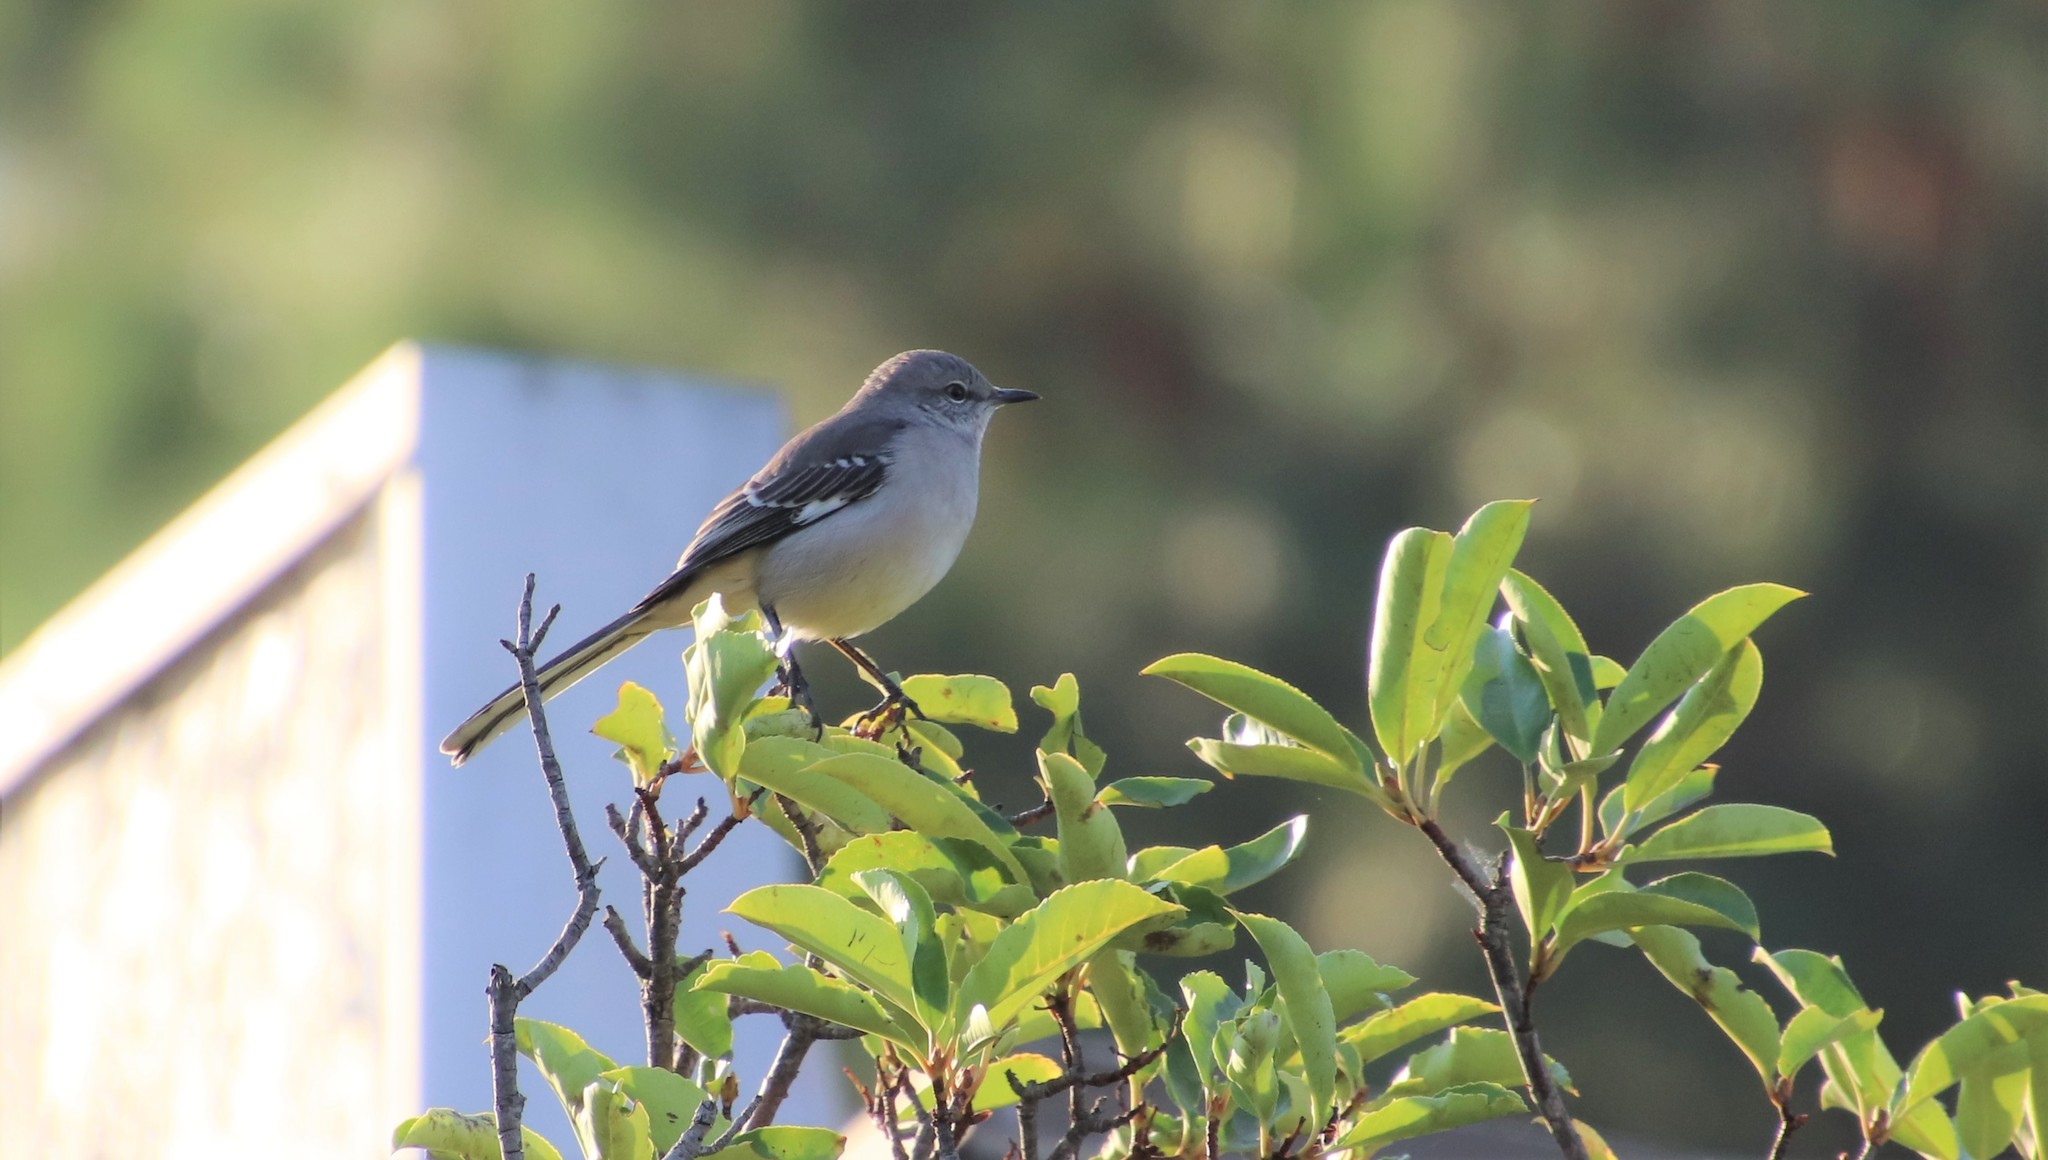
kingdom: Animalia
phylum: Chordata
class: Aves
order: Passeriformes
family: Mimidae
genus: Mimus
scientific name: Mimus polyglottos
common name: Northern mockingbird
